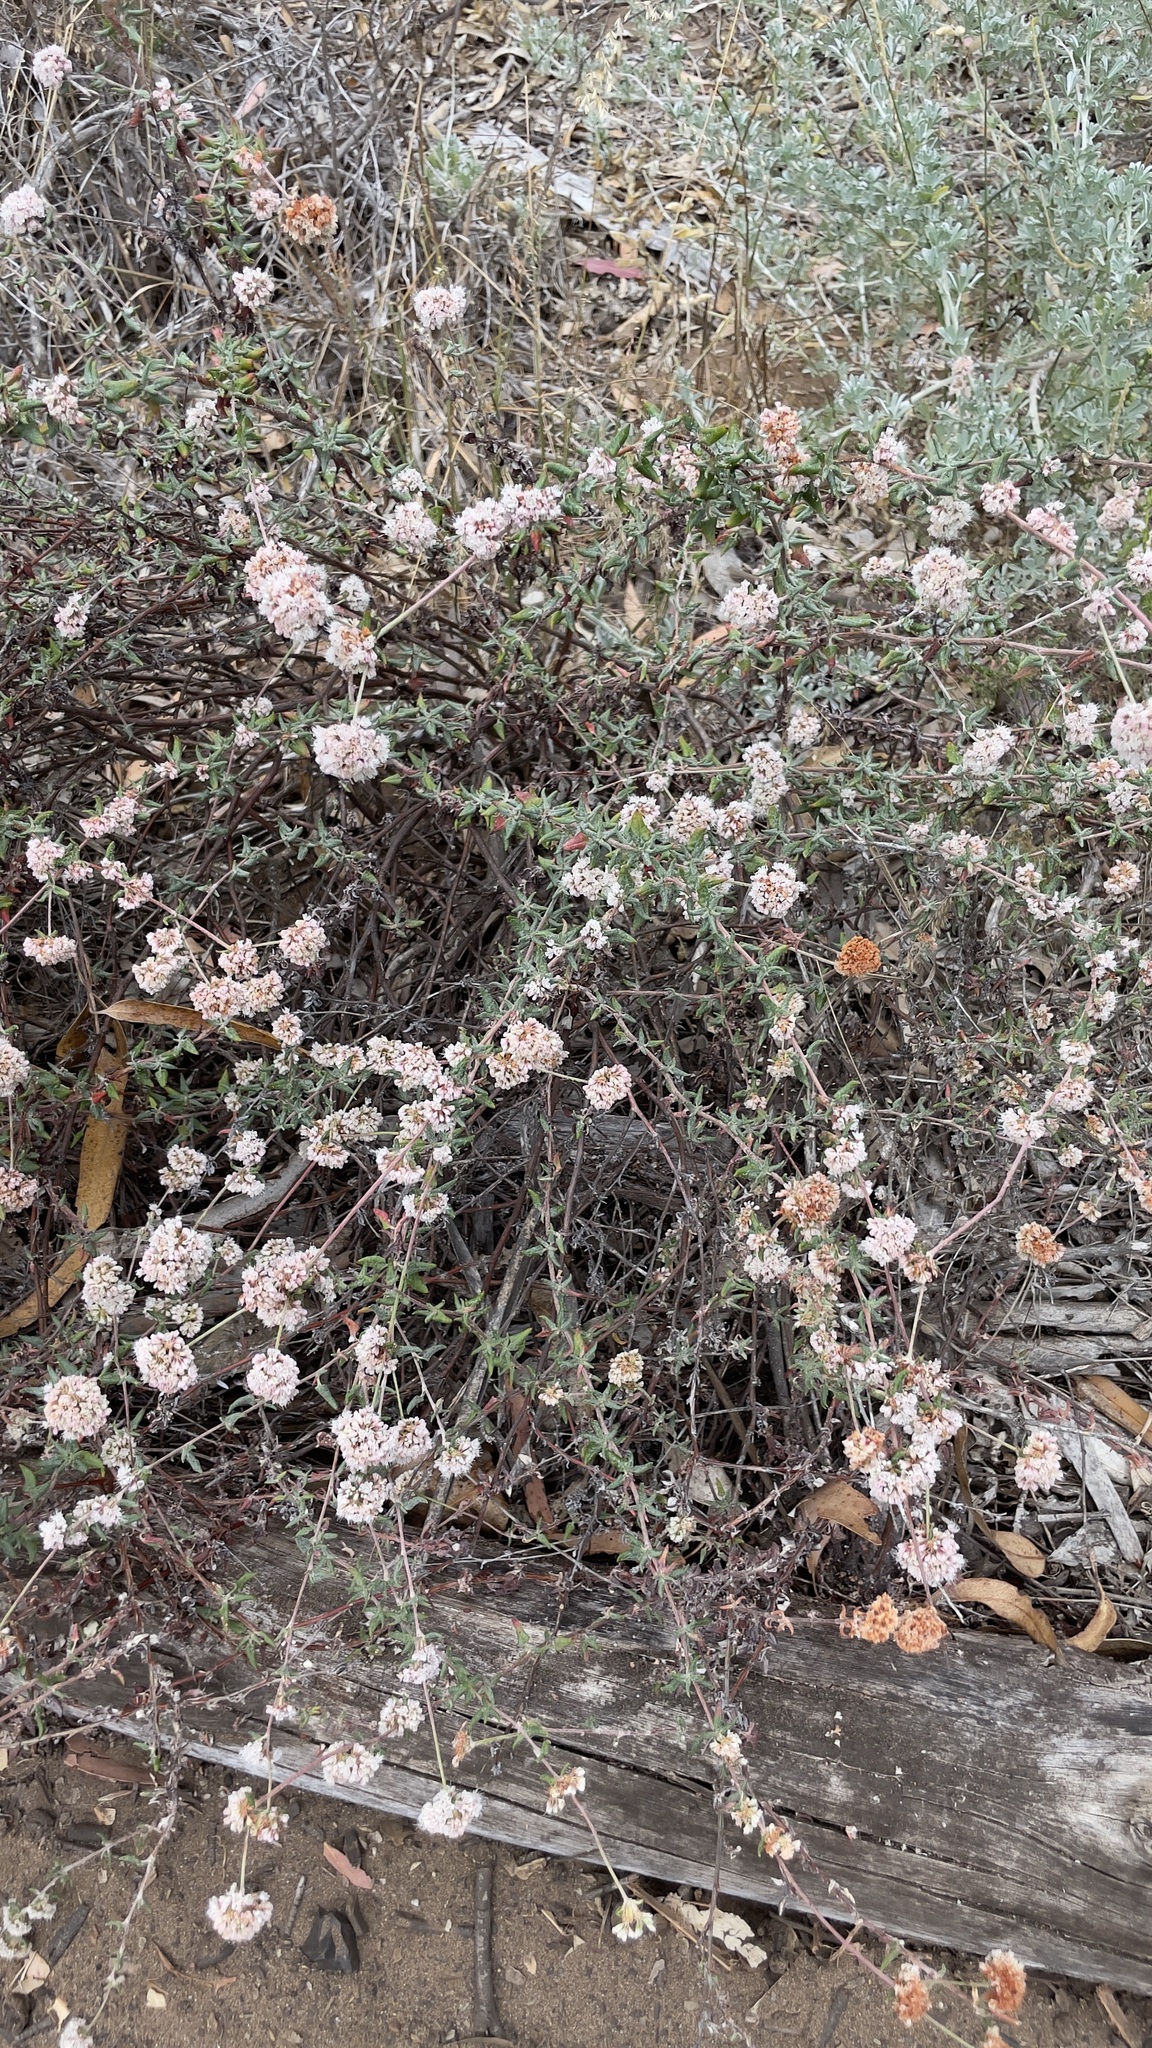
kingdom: Plantae
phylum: Tracheophyta
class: Magnoliopsida
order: Caryophyllales
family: Polygonaceae
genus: Eriogonum
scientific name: Eriogonum parvifolium
